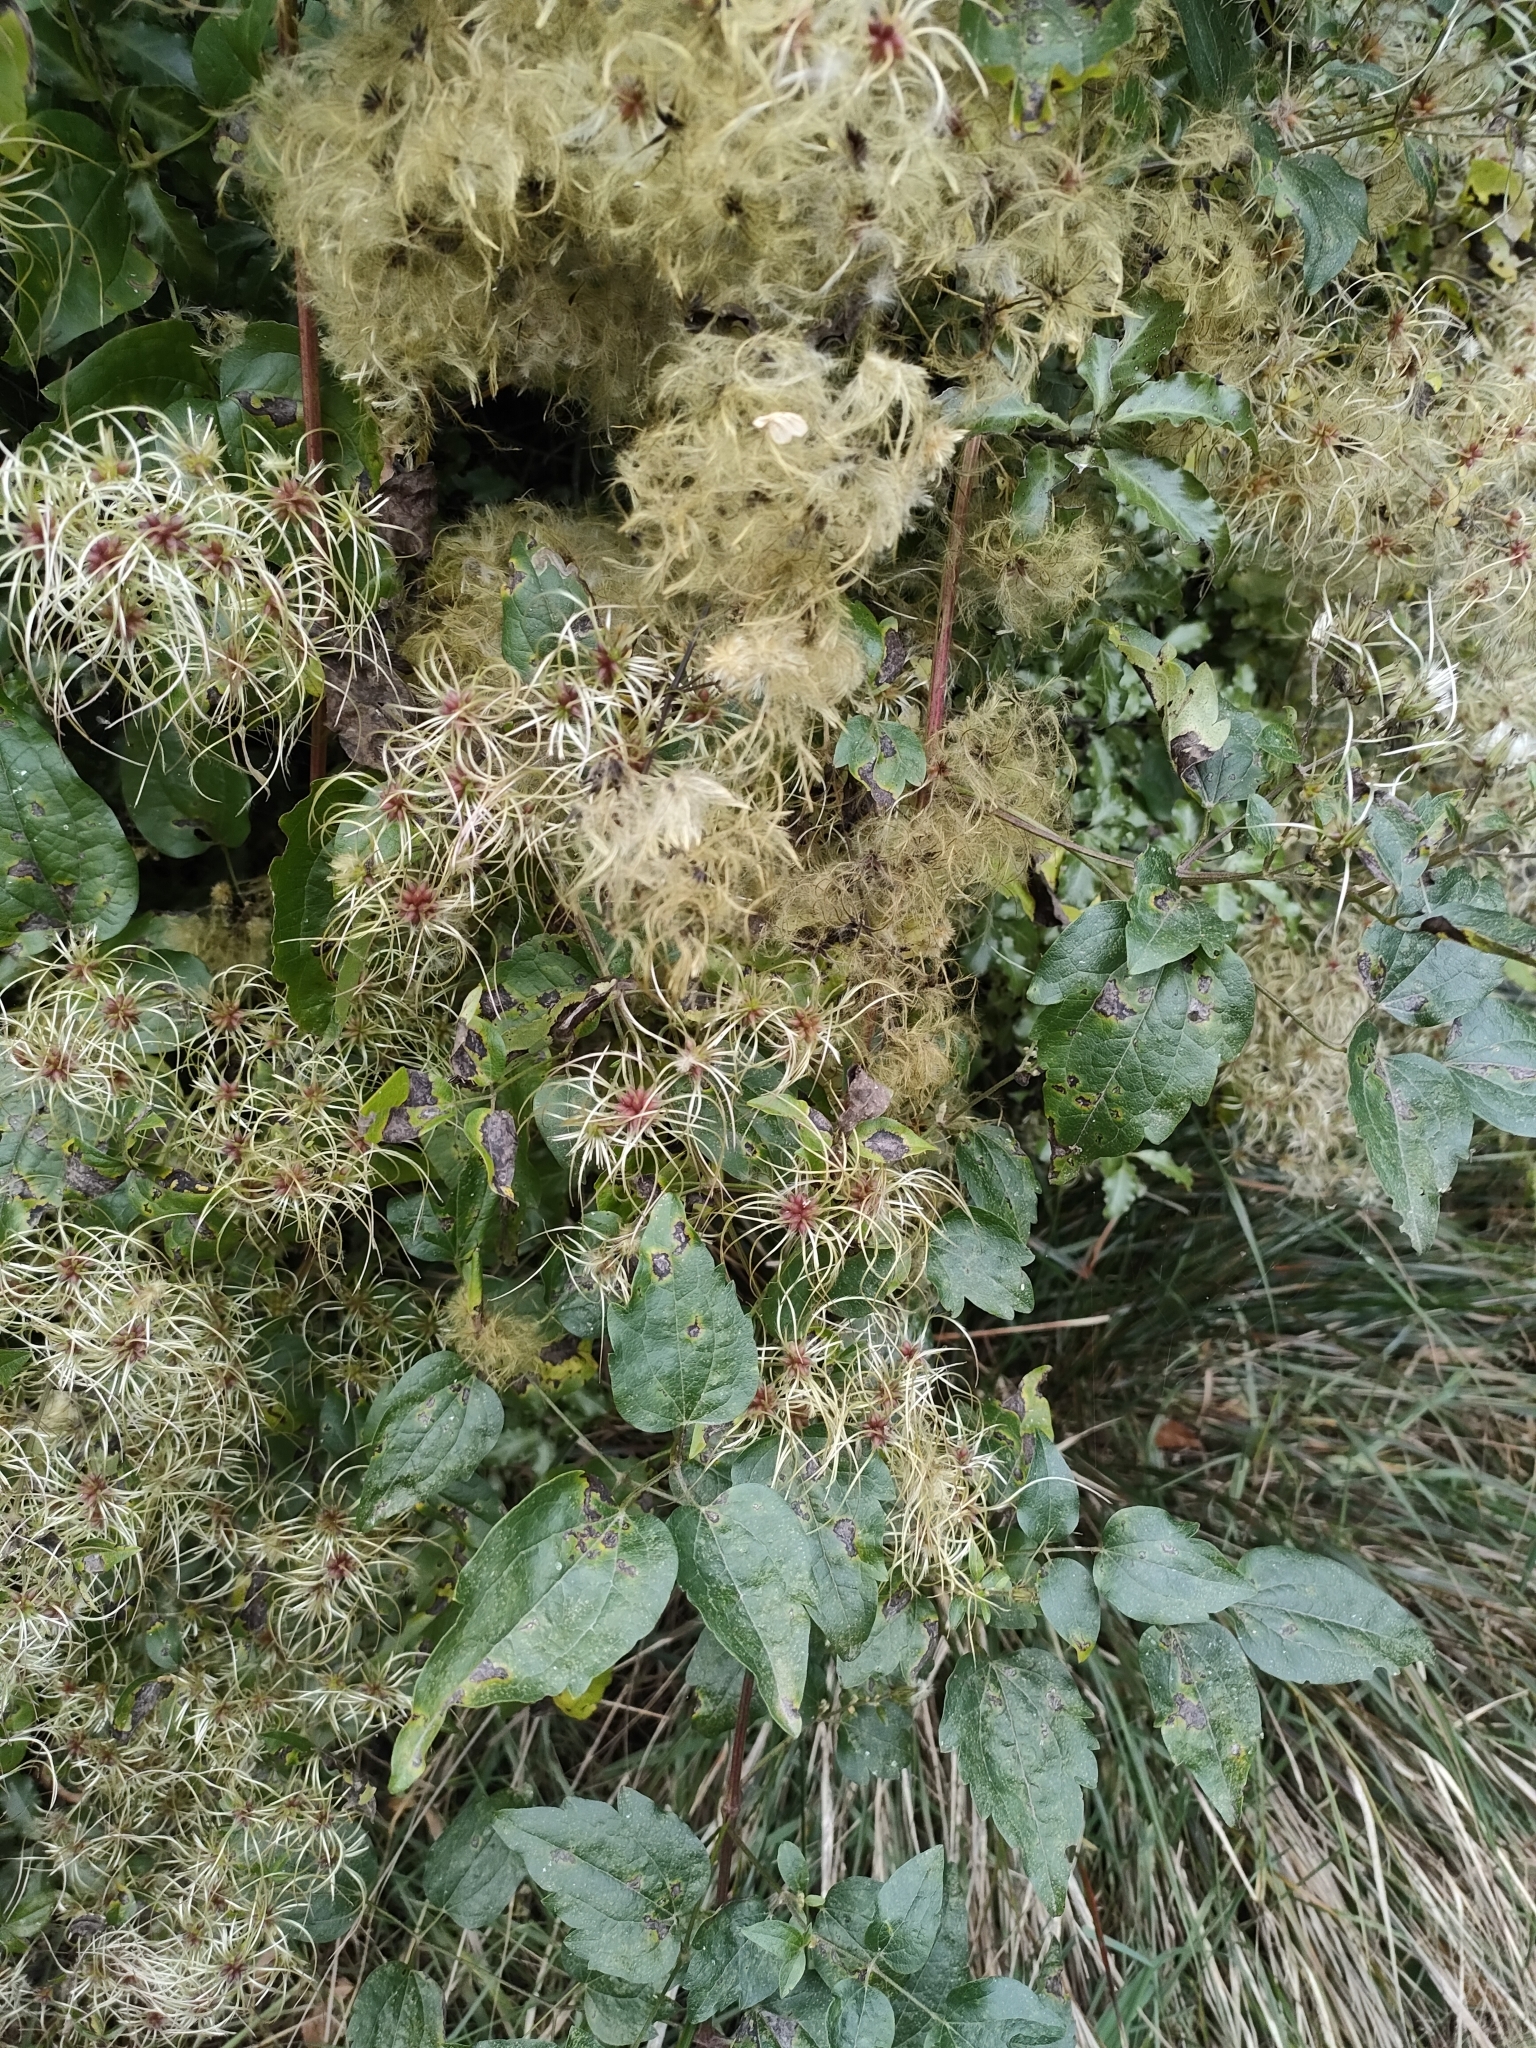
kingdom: Plantae
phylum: Tracheophyta
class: Magnoliopsida
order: Ranunculales
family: Ranunculaceae
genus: Clematis
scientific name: Clematis vitalba
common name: Evergreen clematis
